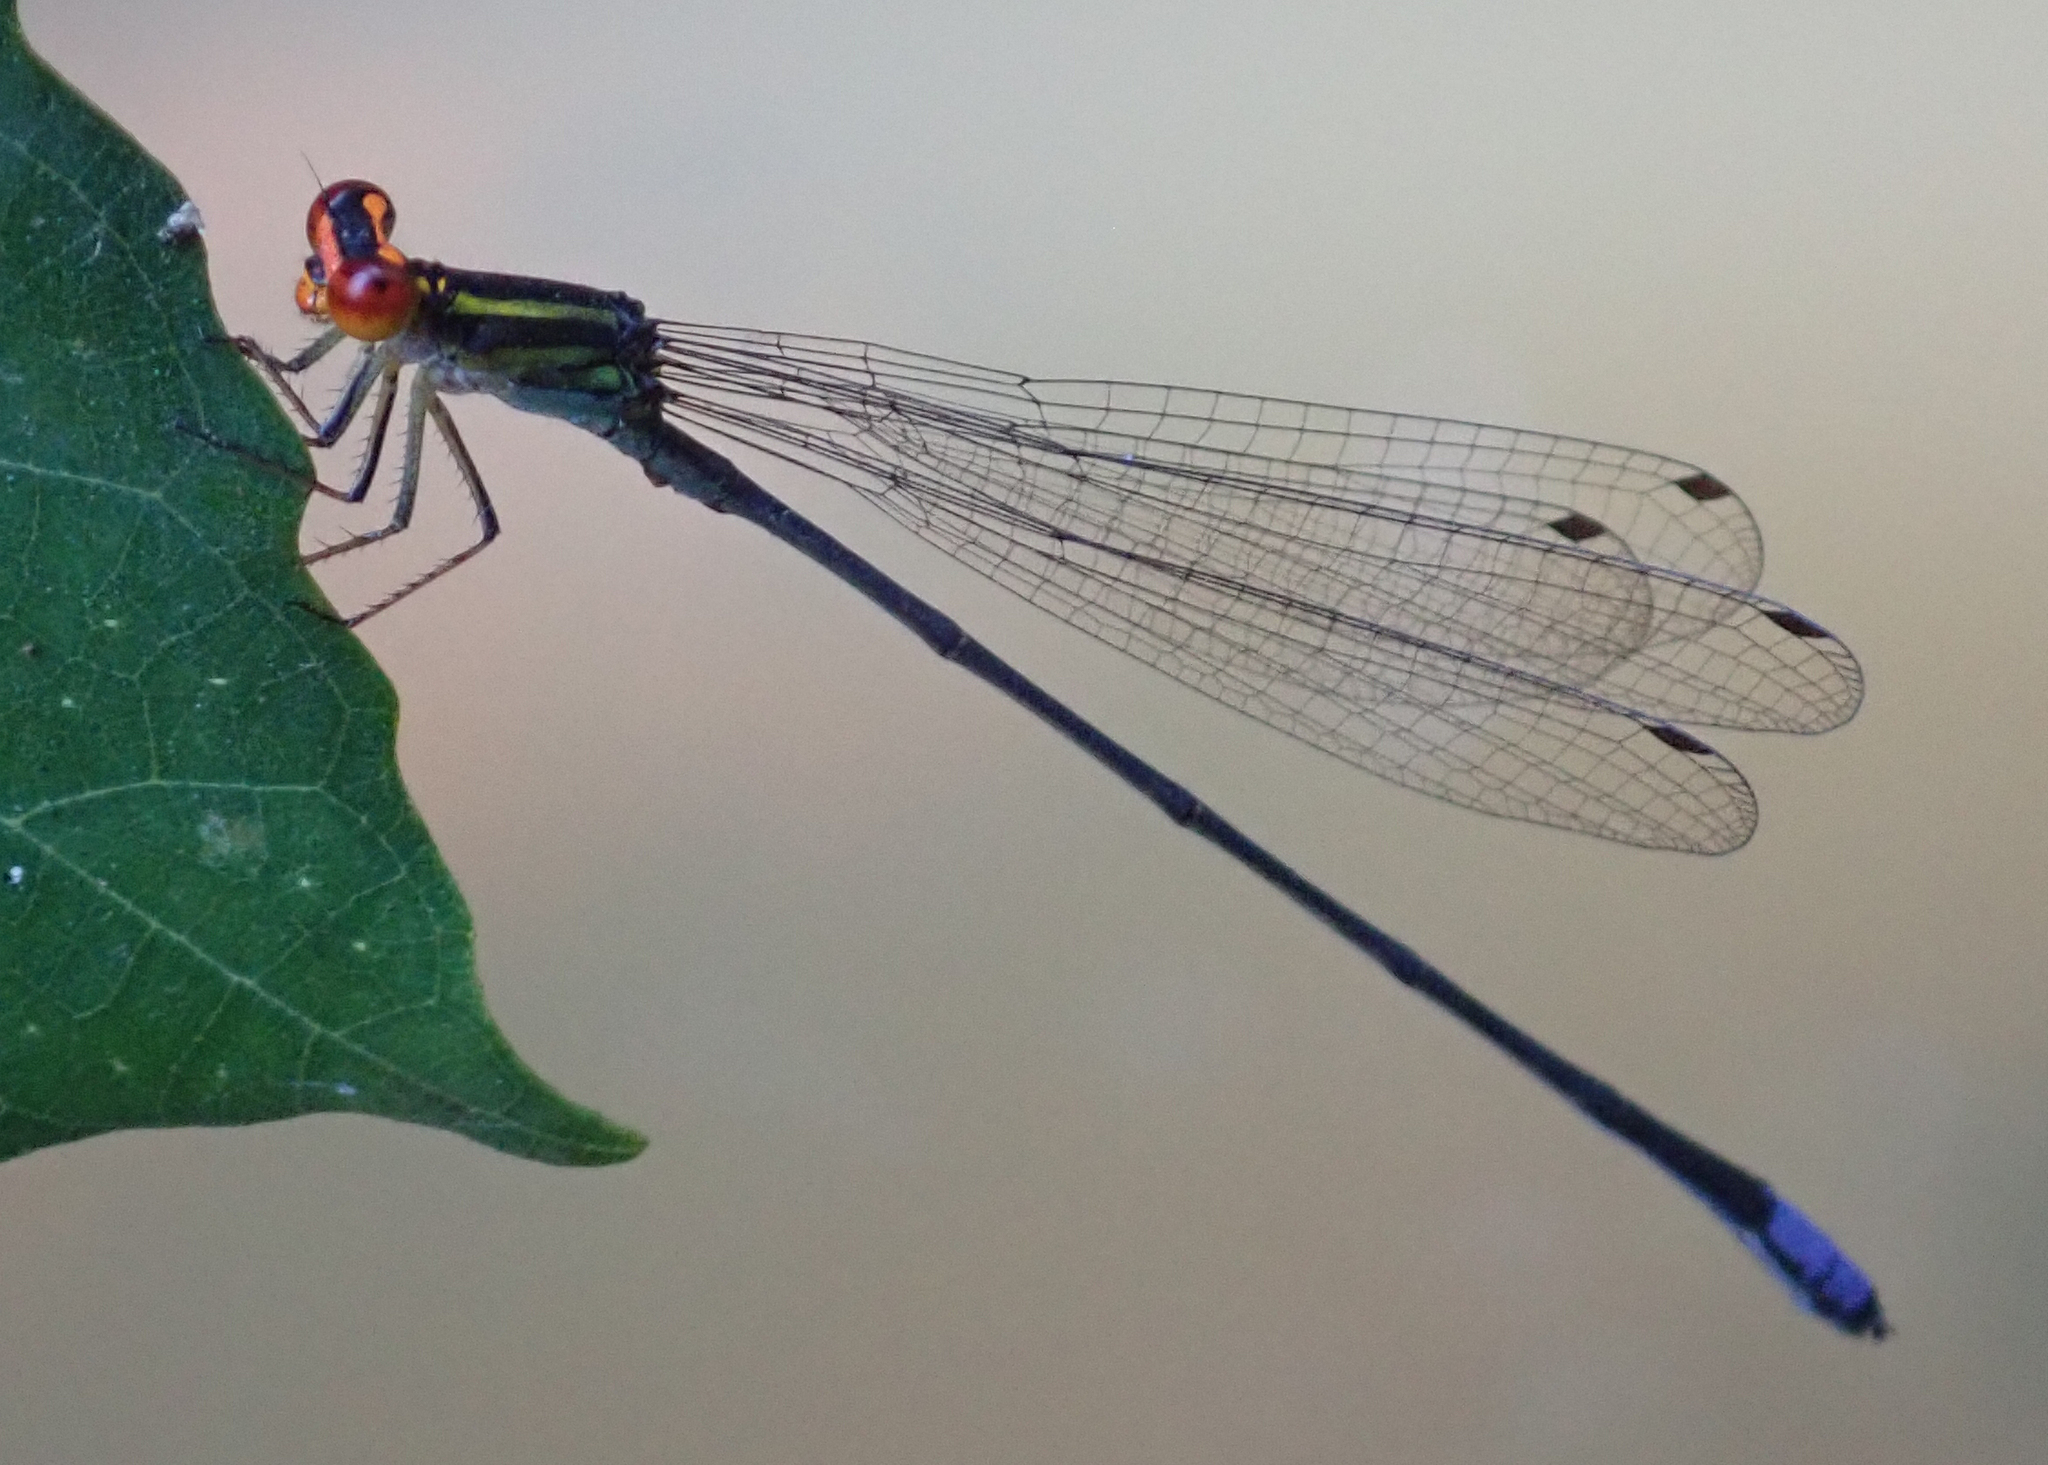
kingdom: Animalia
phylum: Arthropoda
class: Insecta
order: Odonata
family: Coenagrionidae
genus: Pseudagrion
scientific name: Pseudagrion hageni
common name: Painted sprite
